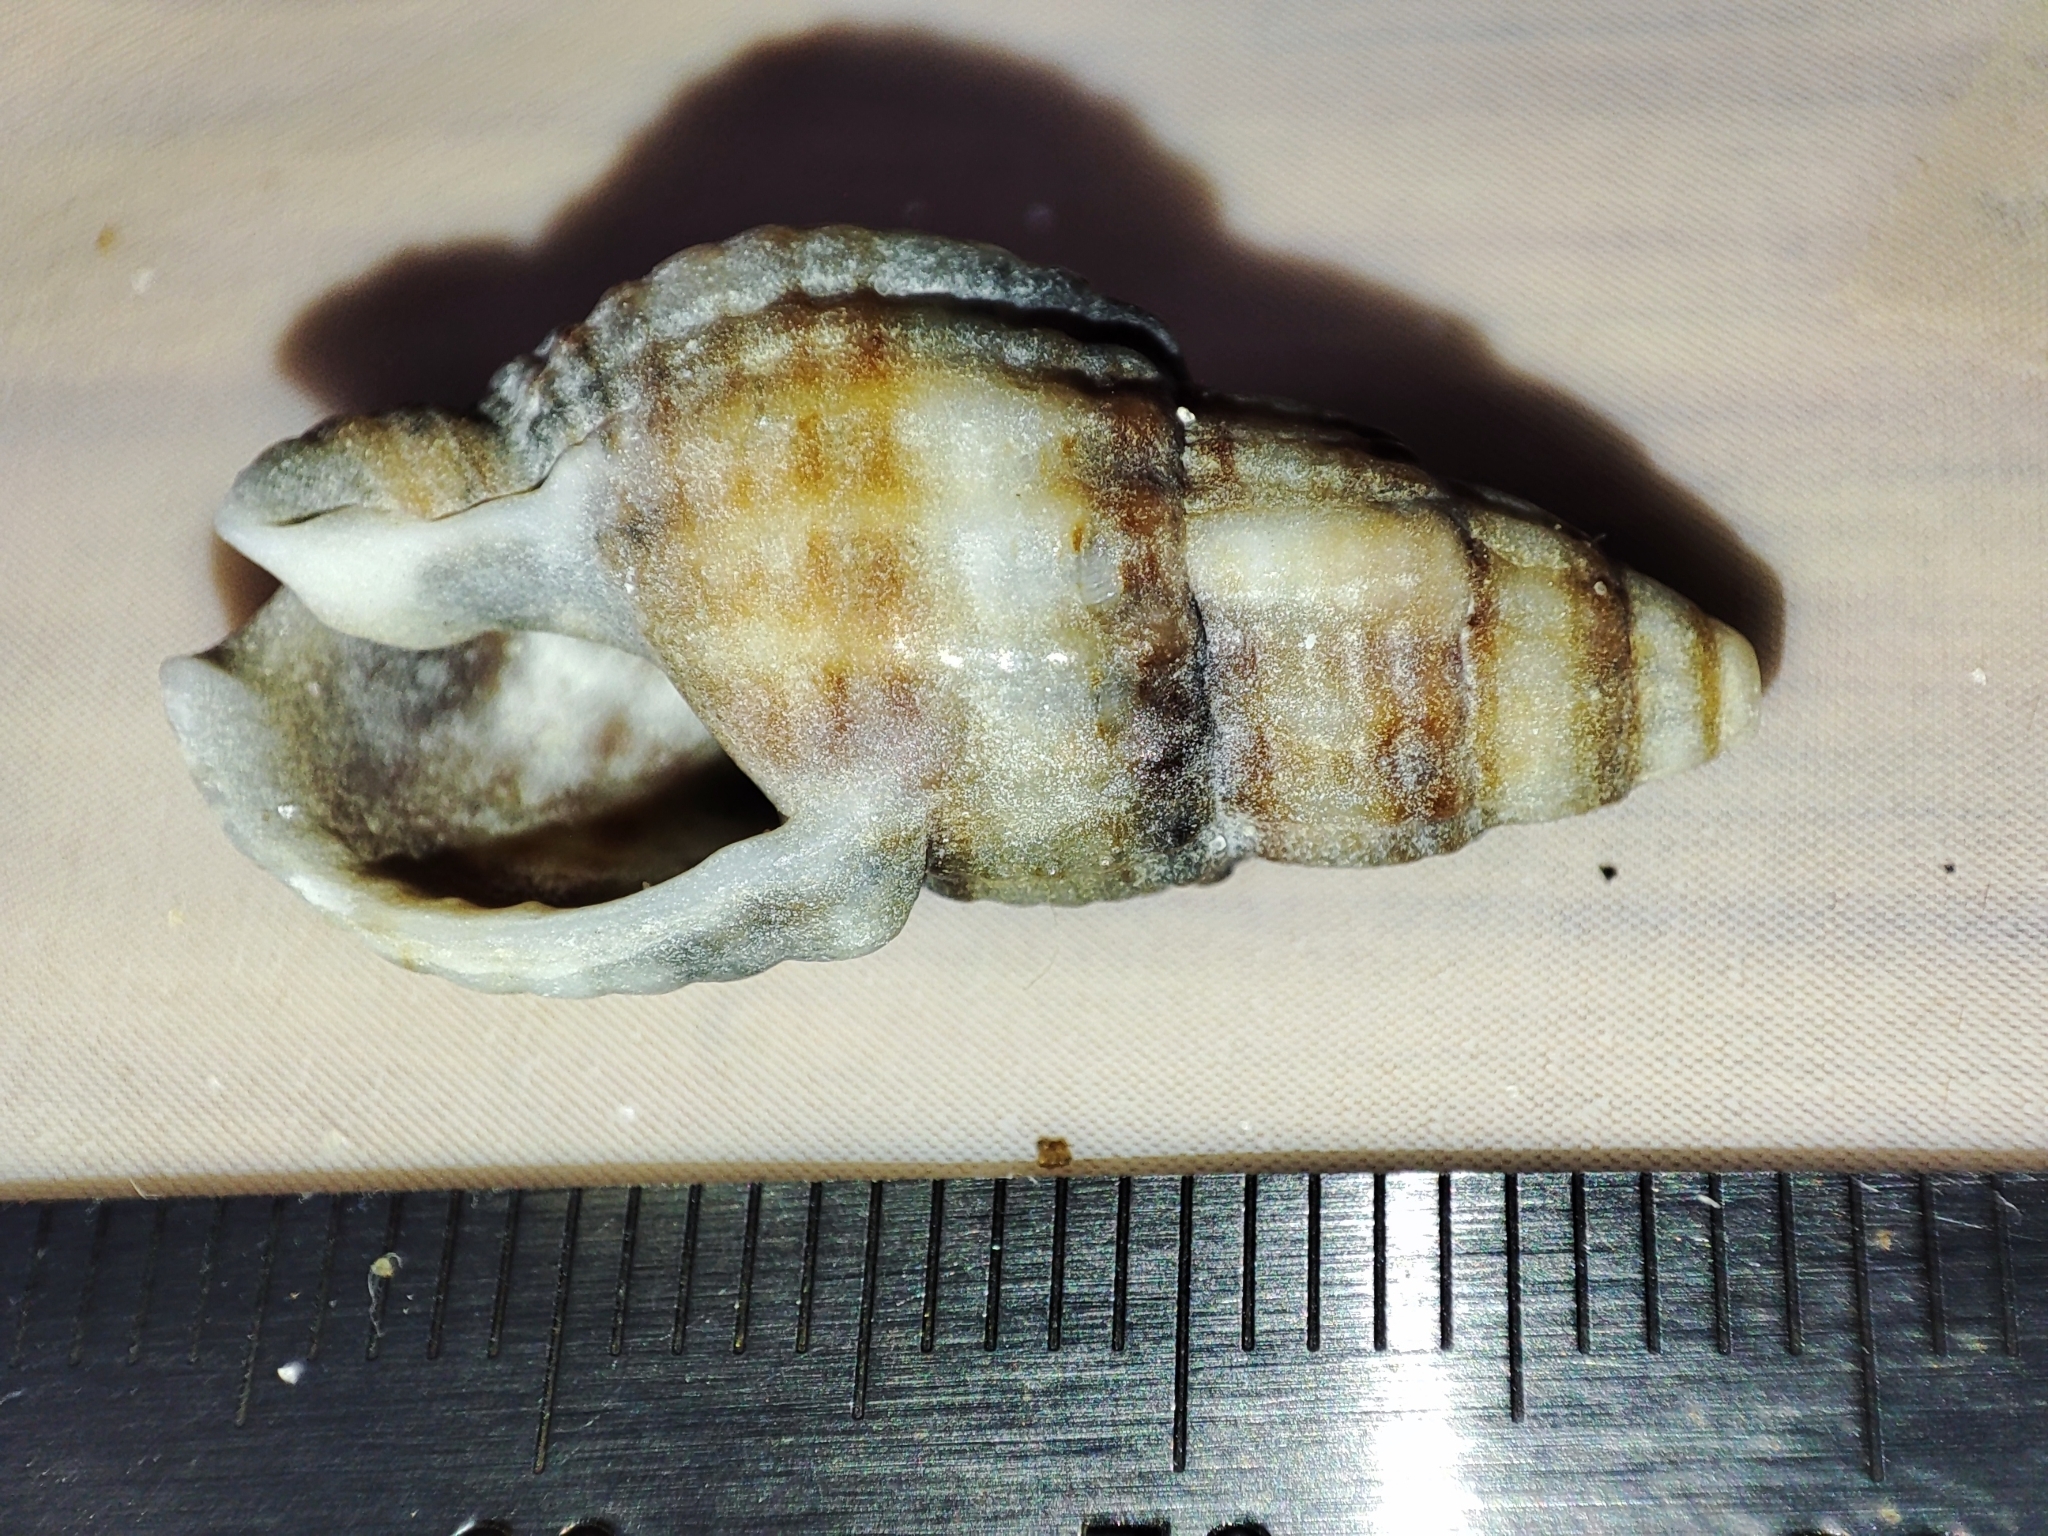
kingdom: Animalia
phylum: Mollusca
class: Gastropoda
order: Neogastropoda
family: Nassariidae
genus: Tritia
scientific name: Tritia nitida
